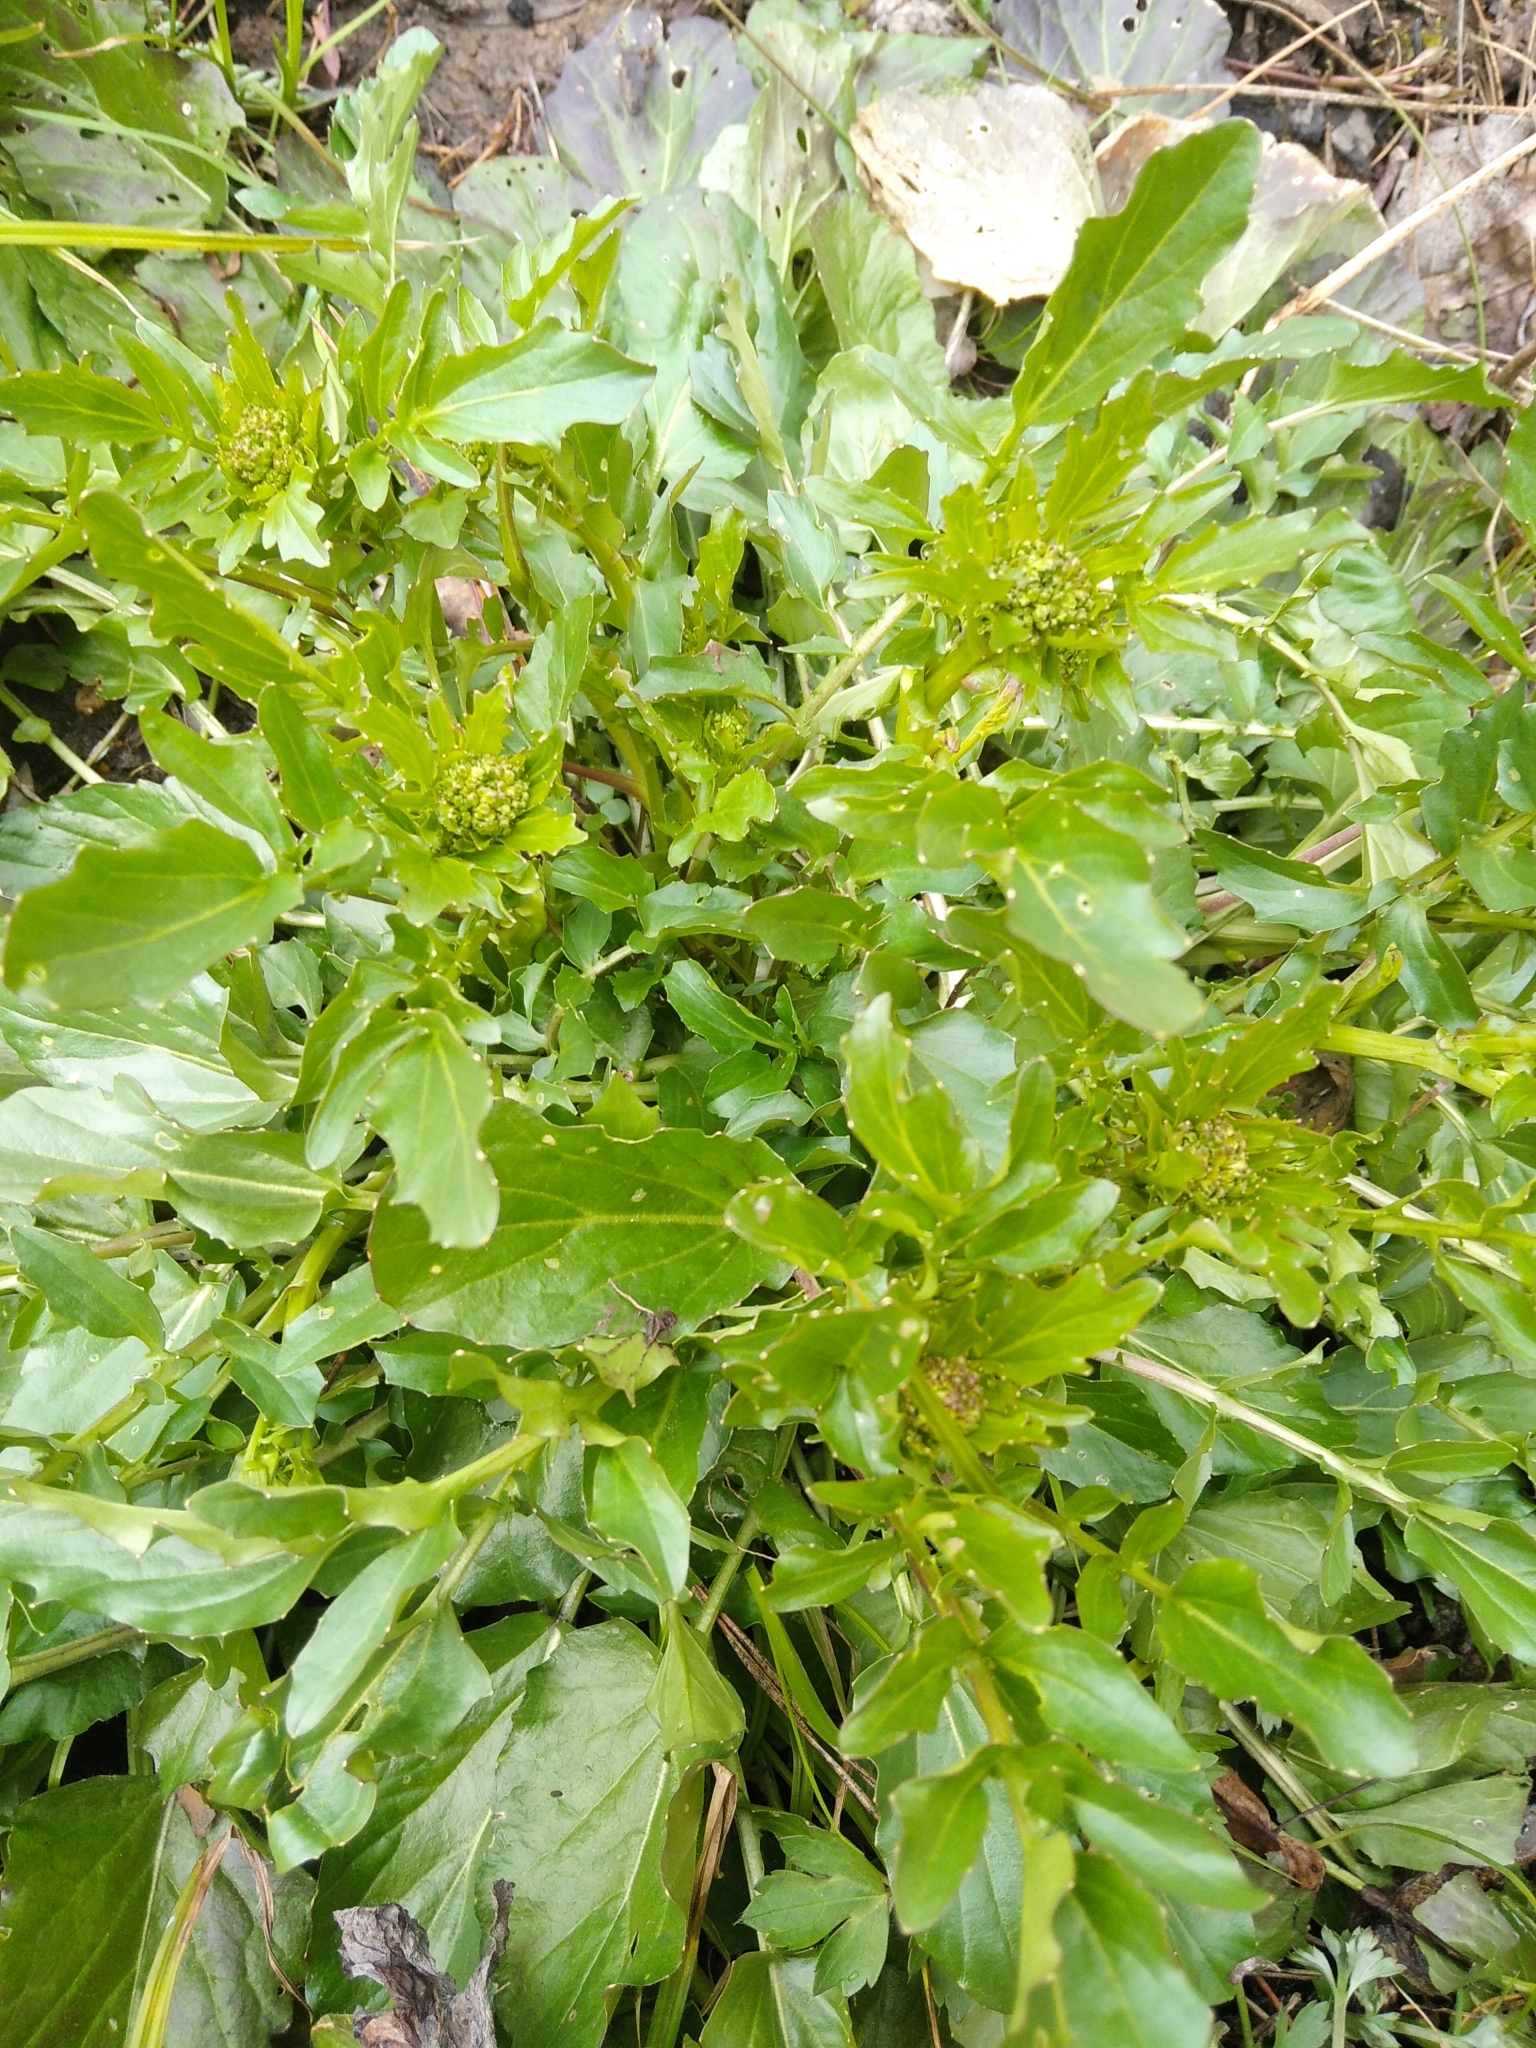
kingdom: Plantae
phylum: Tracheophyta
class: Magnoliopsida
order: Brassicales
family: Brassicaceae
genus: Barbarea
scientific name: Barbarea vulgaris
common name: Cressy-greens
